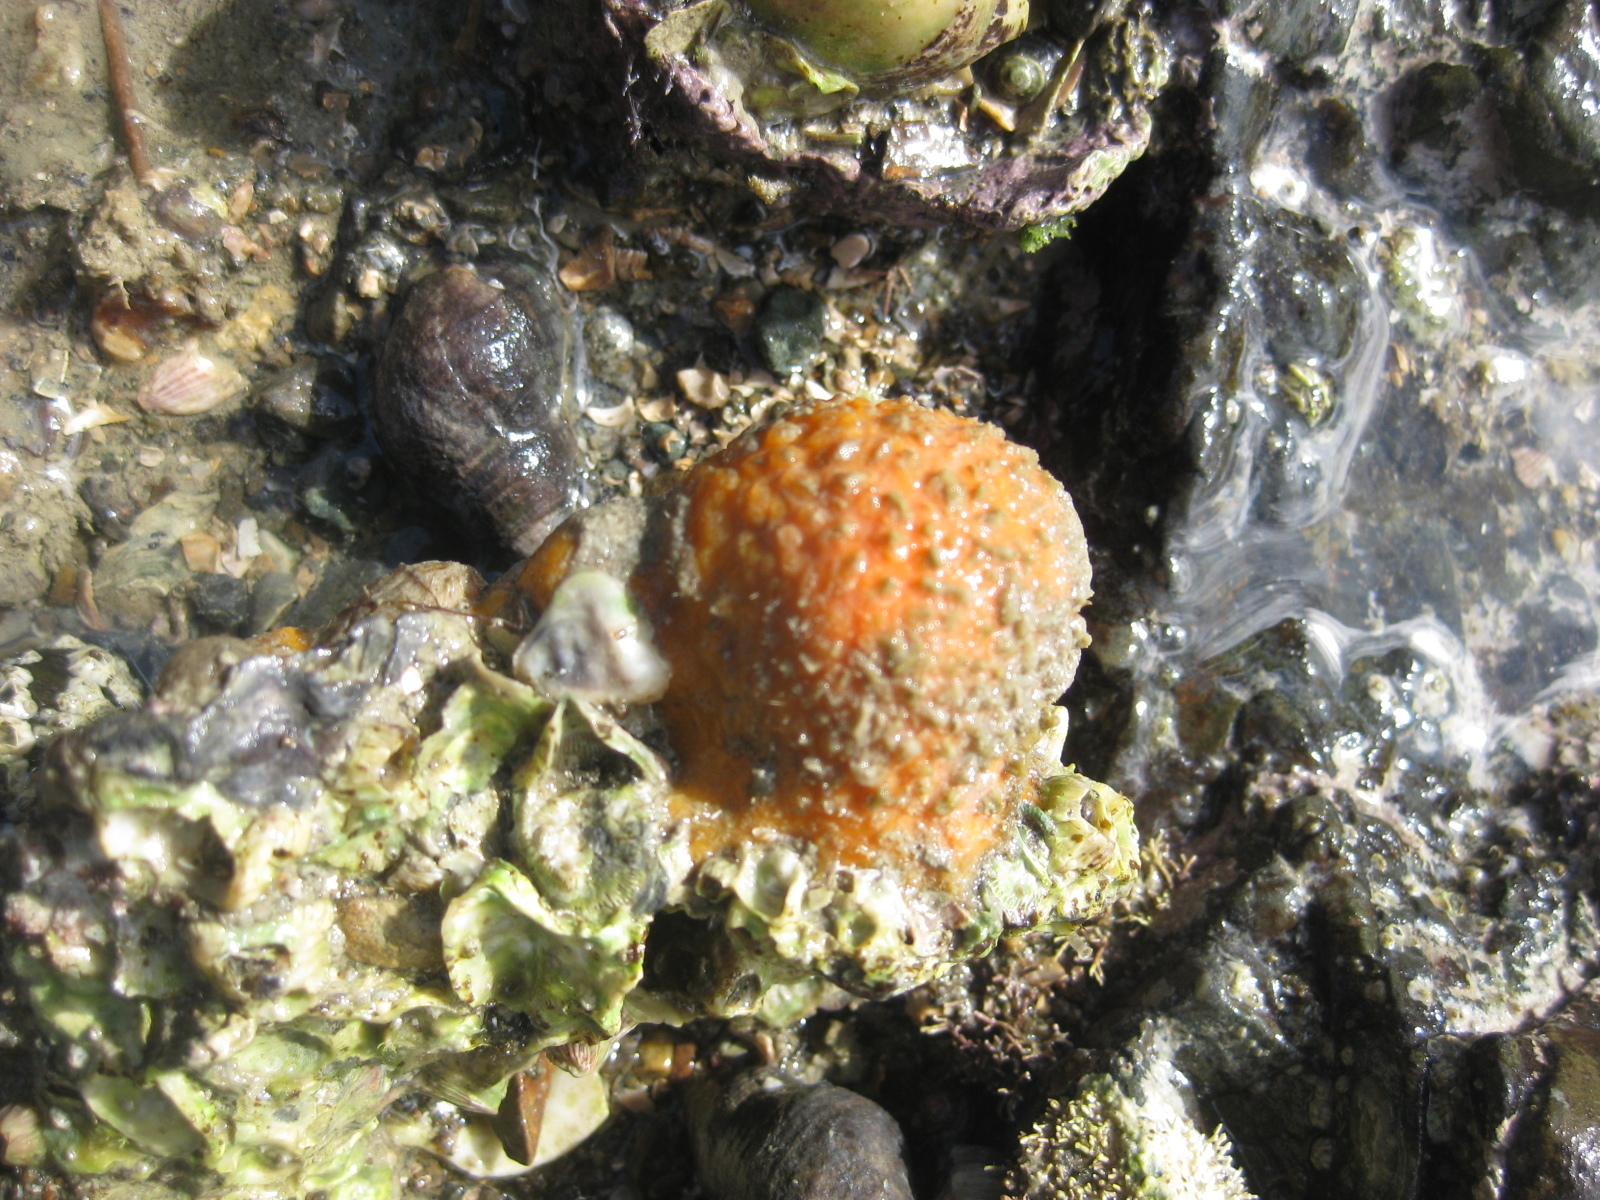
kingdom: Animalia
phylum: Porifera
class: Demospongiae
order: Tethyida
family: Tethyidae
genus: Tethya
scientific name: Tethya burtoni
